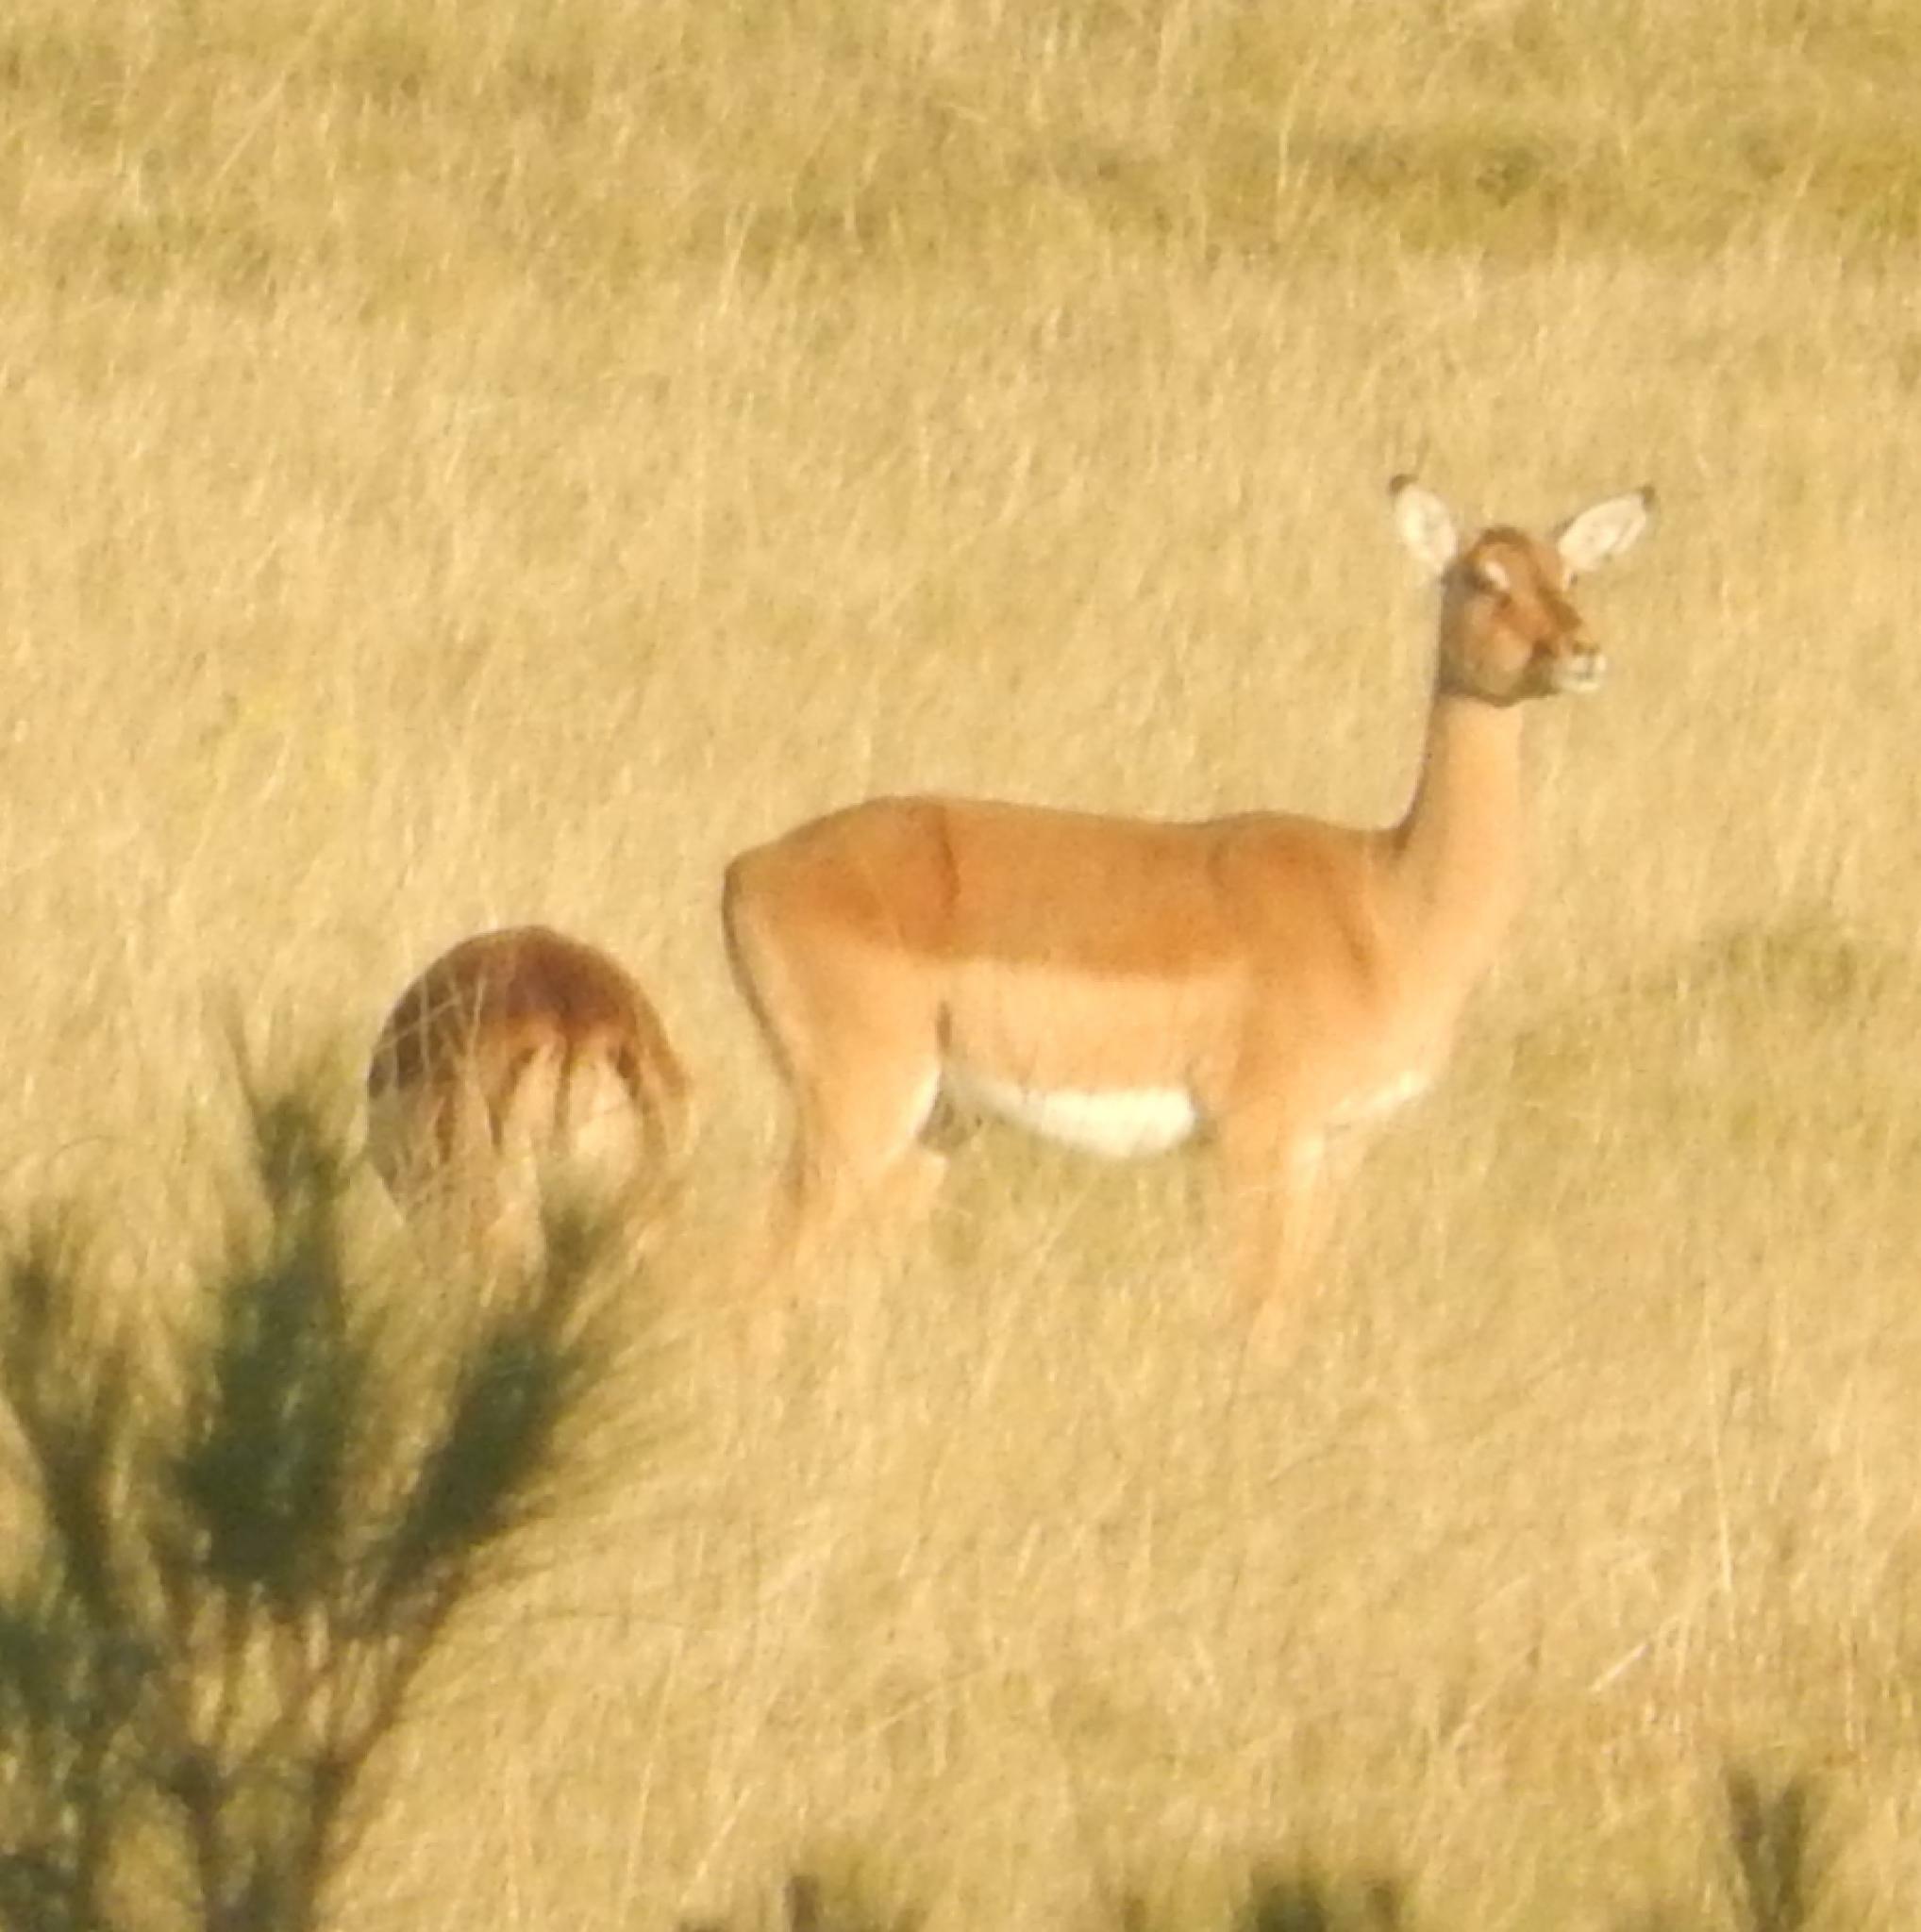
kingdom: Animalia
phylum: Chordata
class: Mammalia
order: Artiodactyla
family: Bovidae
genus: Aepyceros
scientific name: Aepyceros melampus
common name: Impala
